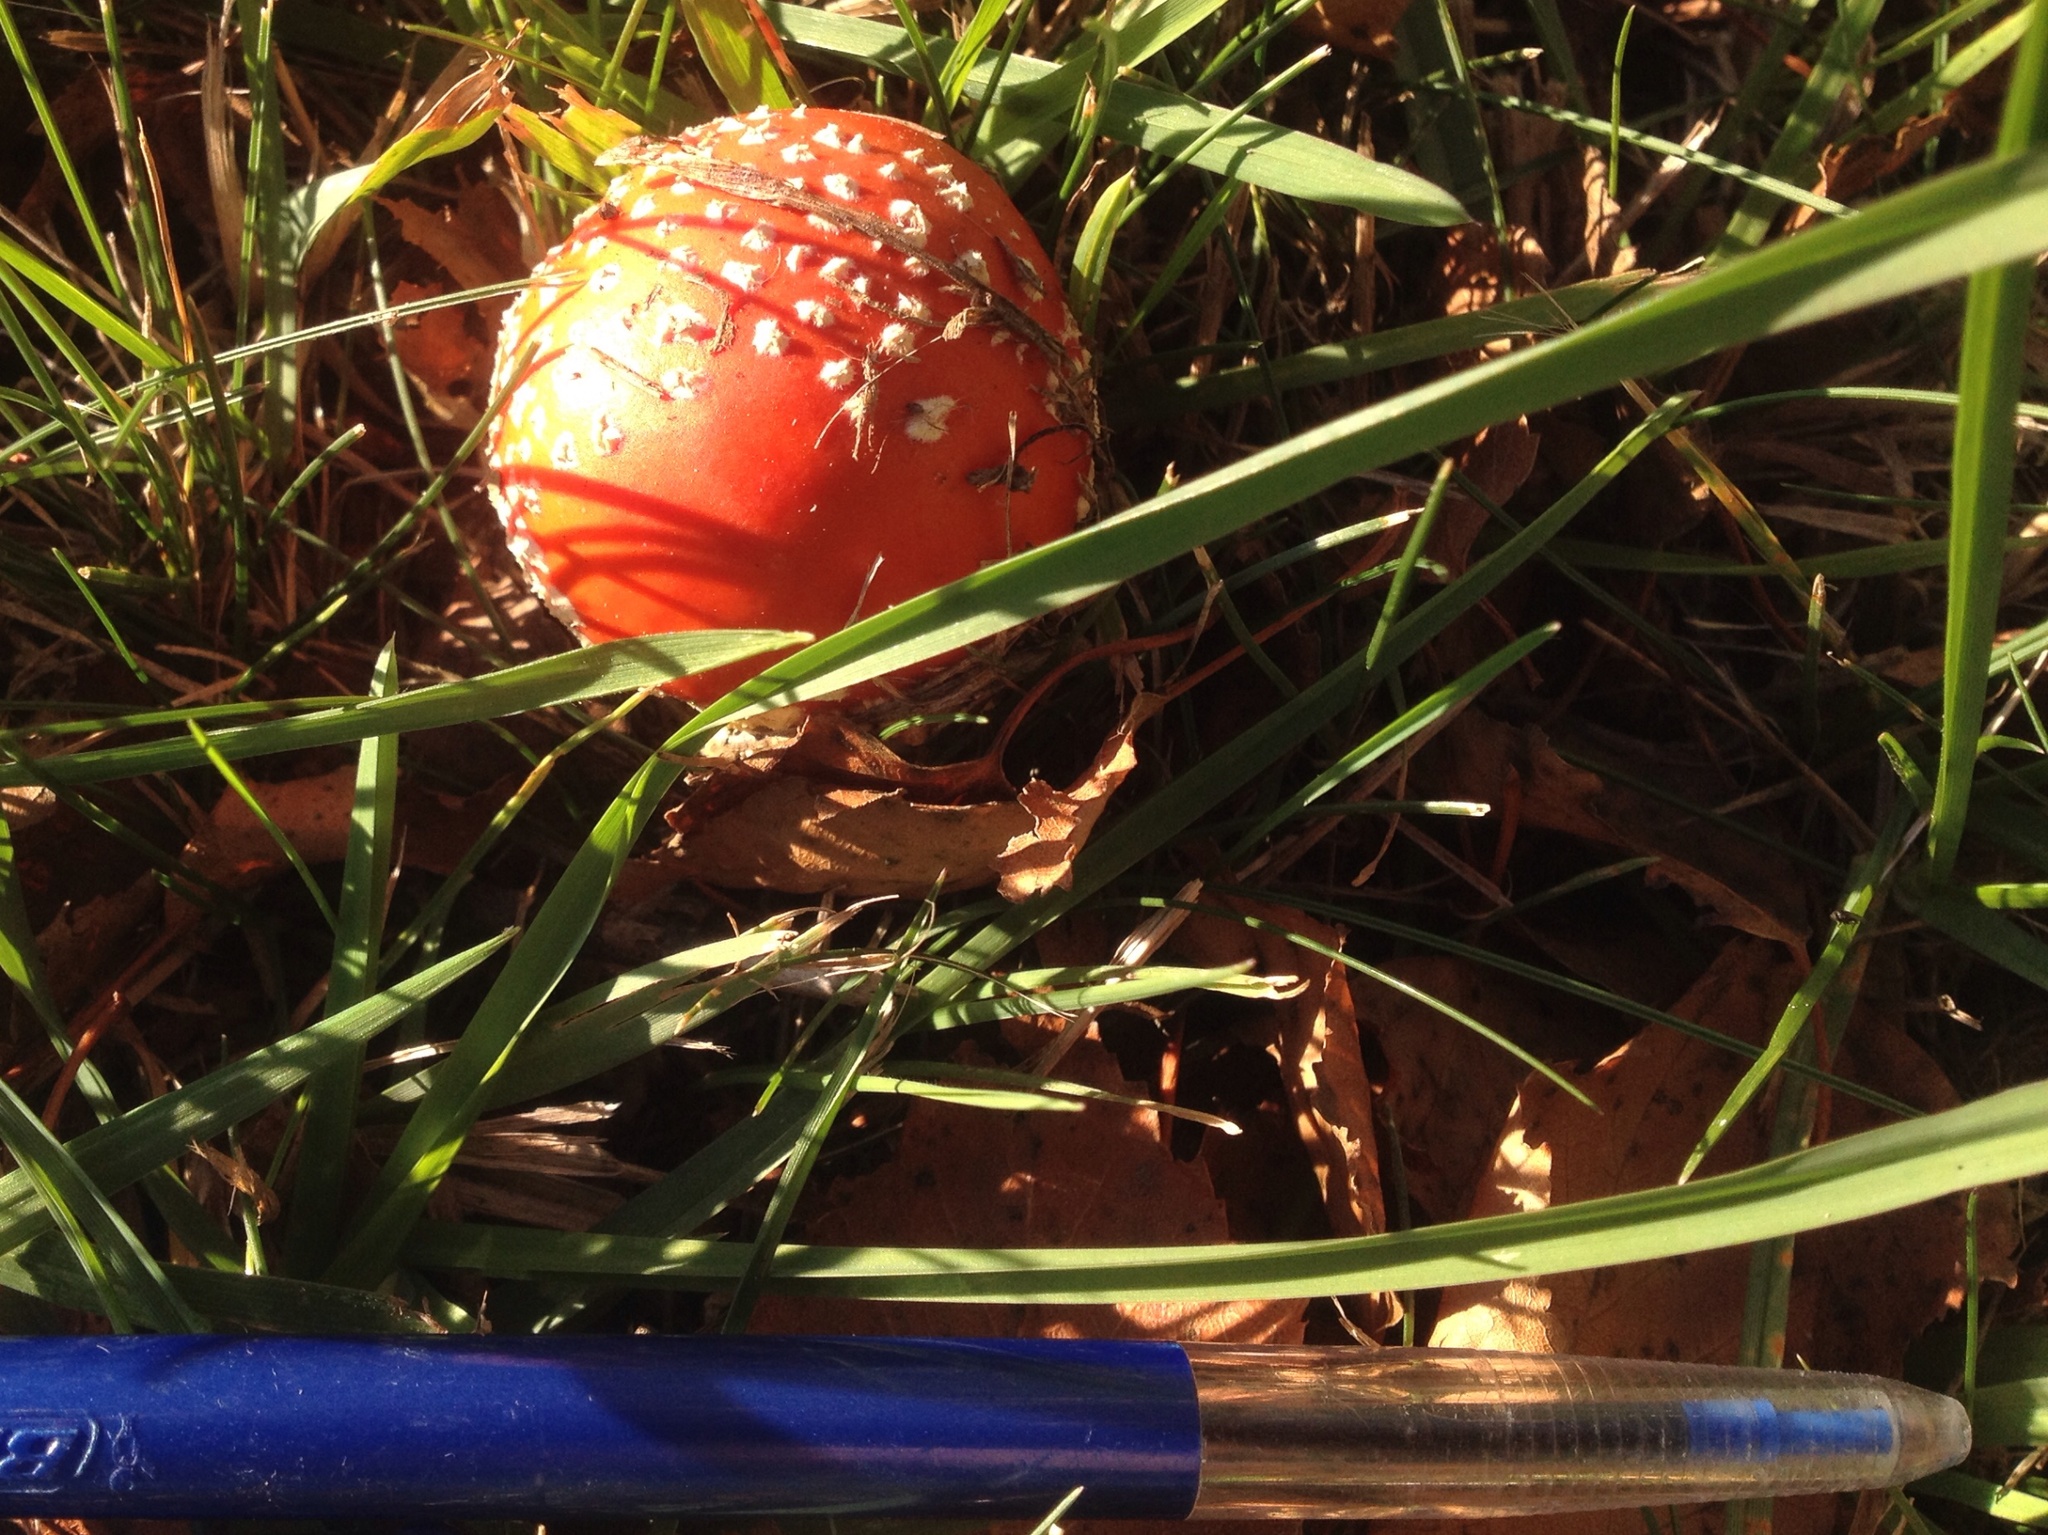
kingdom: Fungi
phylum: Basidiomycota
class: Agaricomycetes
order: Agaricales
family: Amanitaceae
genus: Amanita
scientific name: Amanita muscaria
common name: Fly agaric
